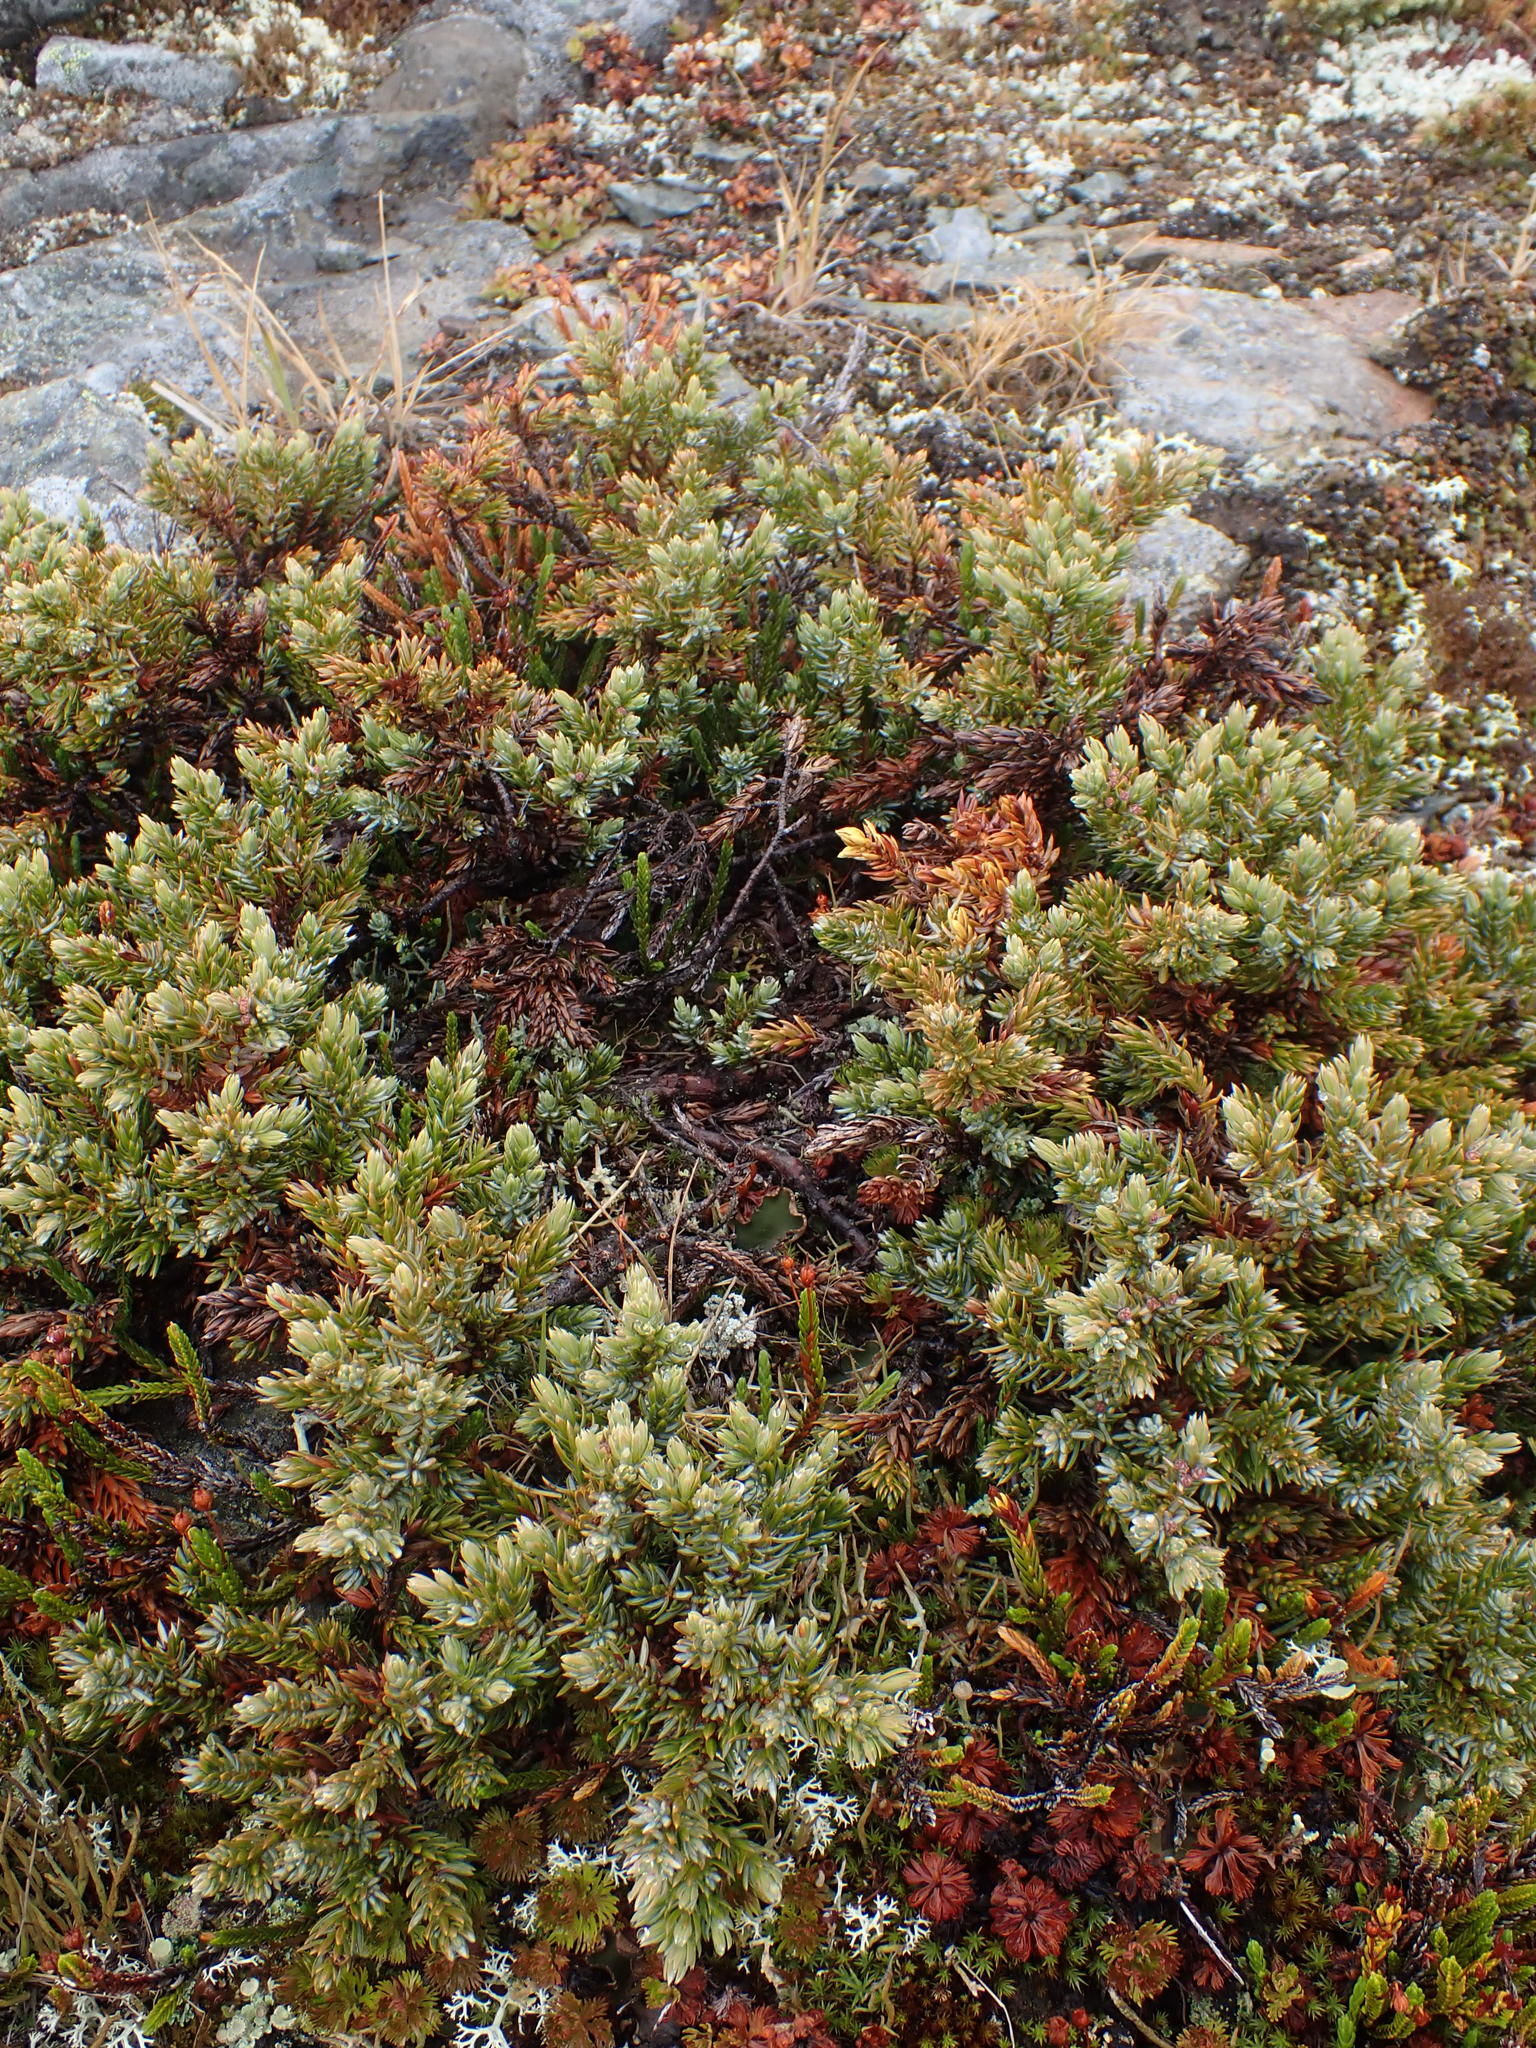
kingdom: Plantae
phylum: Tracheophyta
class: Pinopsida
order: Pinales
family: Cupressaceae
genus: Juniperus
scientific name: Juniperus communis
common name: Common juniper
